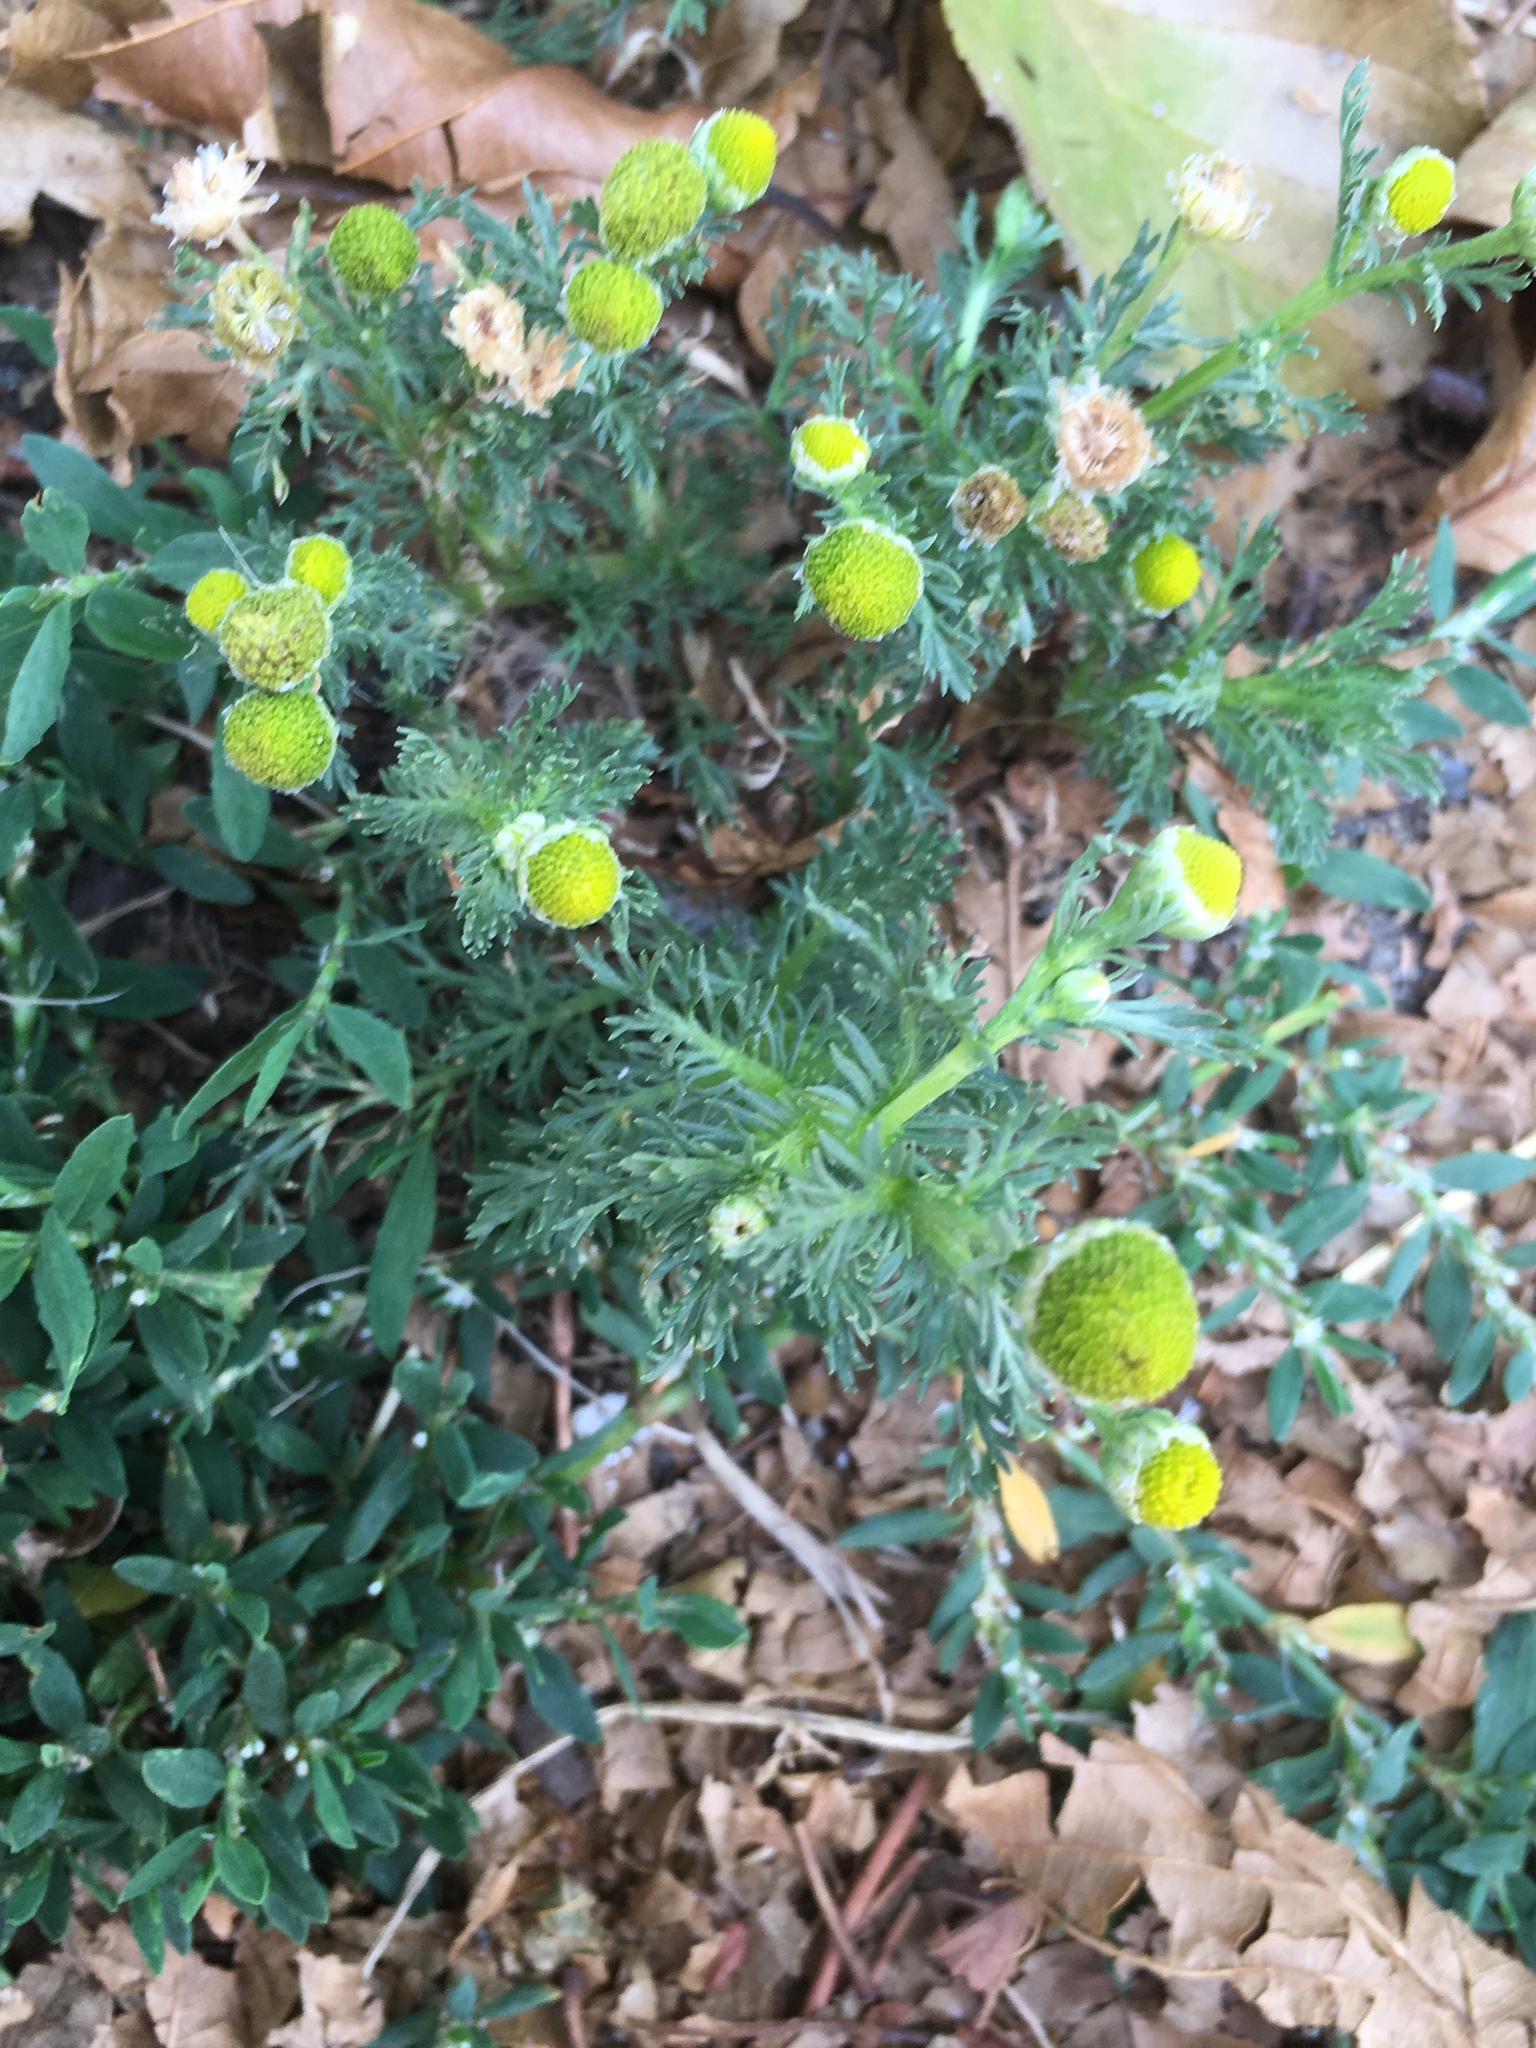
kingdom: Plantae
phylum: Tracheophyta
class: Magnoliopsida
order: Asterales
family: Asteraceae
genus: Matricaria
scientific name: Matricaria discoidea
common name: Disc mayweed
